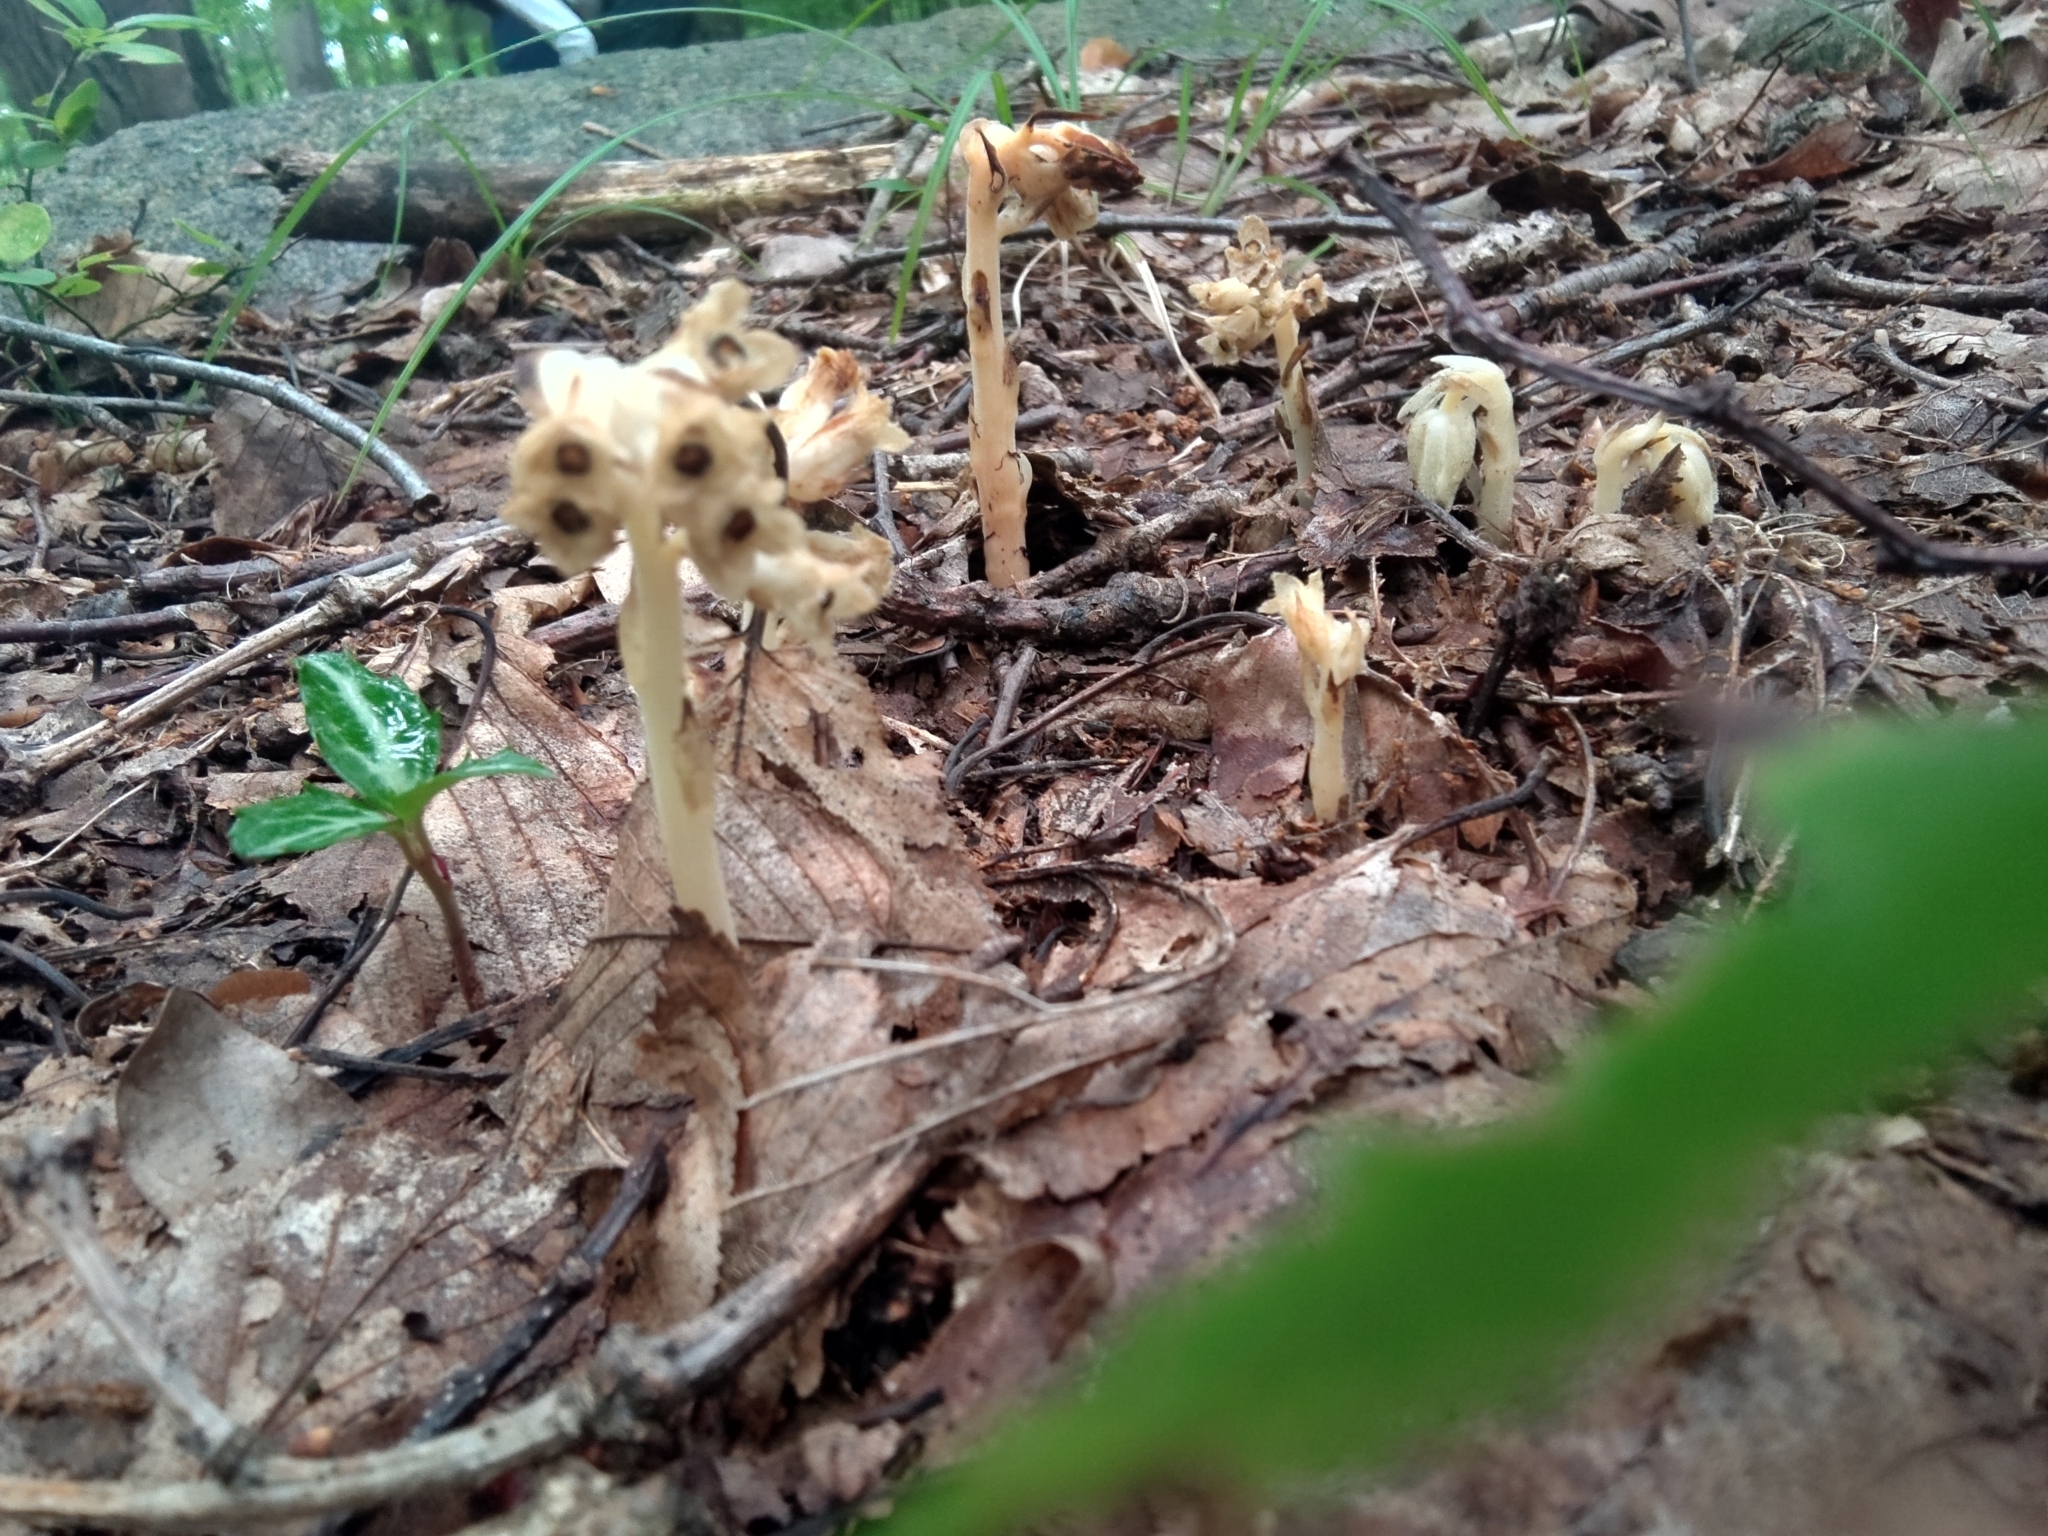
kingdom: Plantae
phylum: Tracheophyta
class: Magnoliopsida
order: Ericales
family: Ericaceae
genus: Hypopitys
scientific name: Hypopitys monotropa
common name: Yellow bird's-nest
